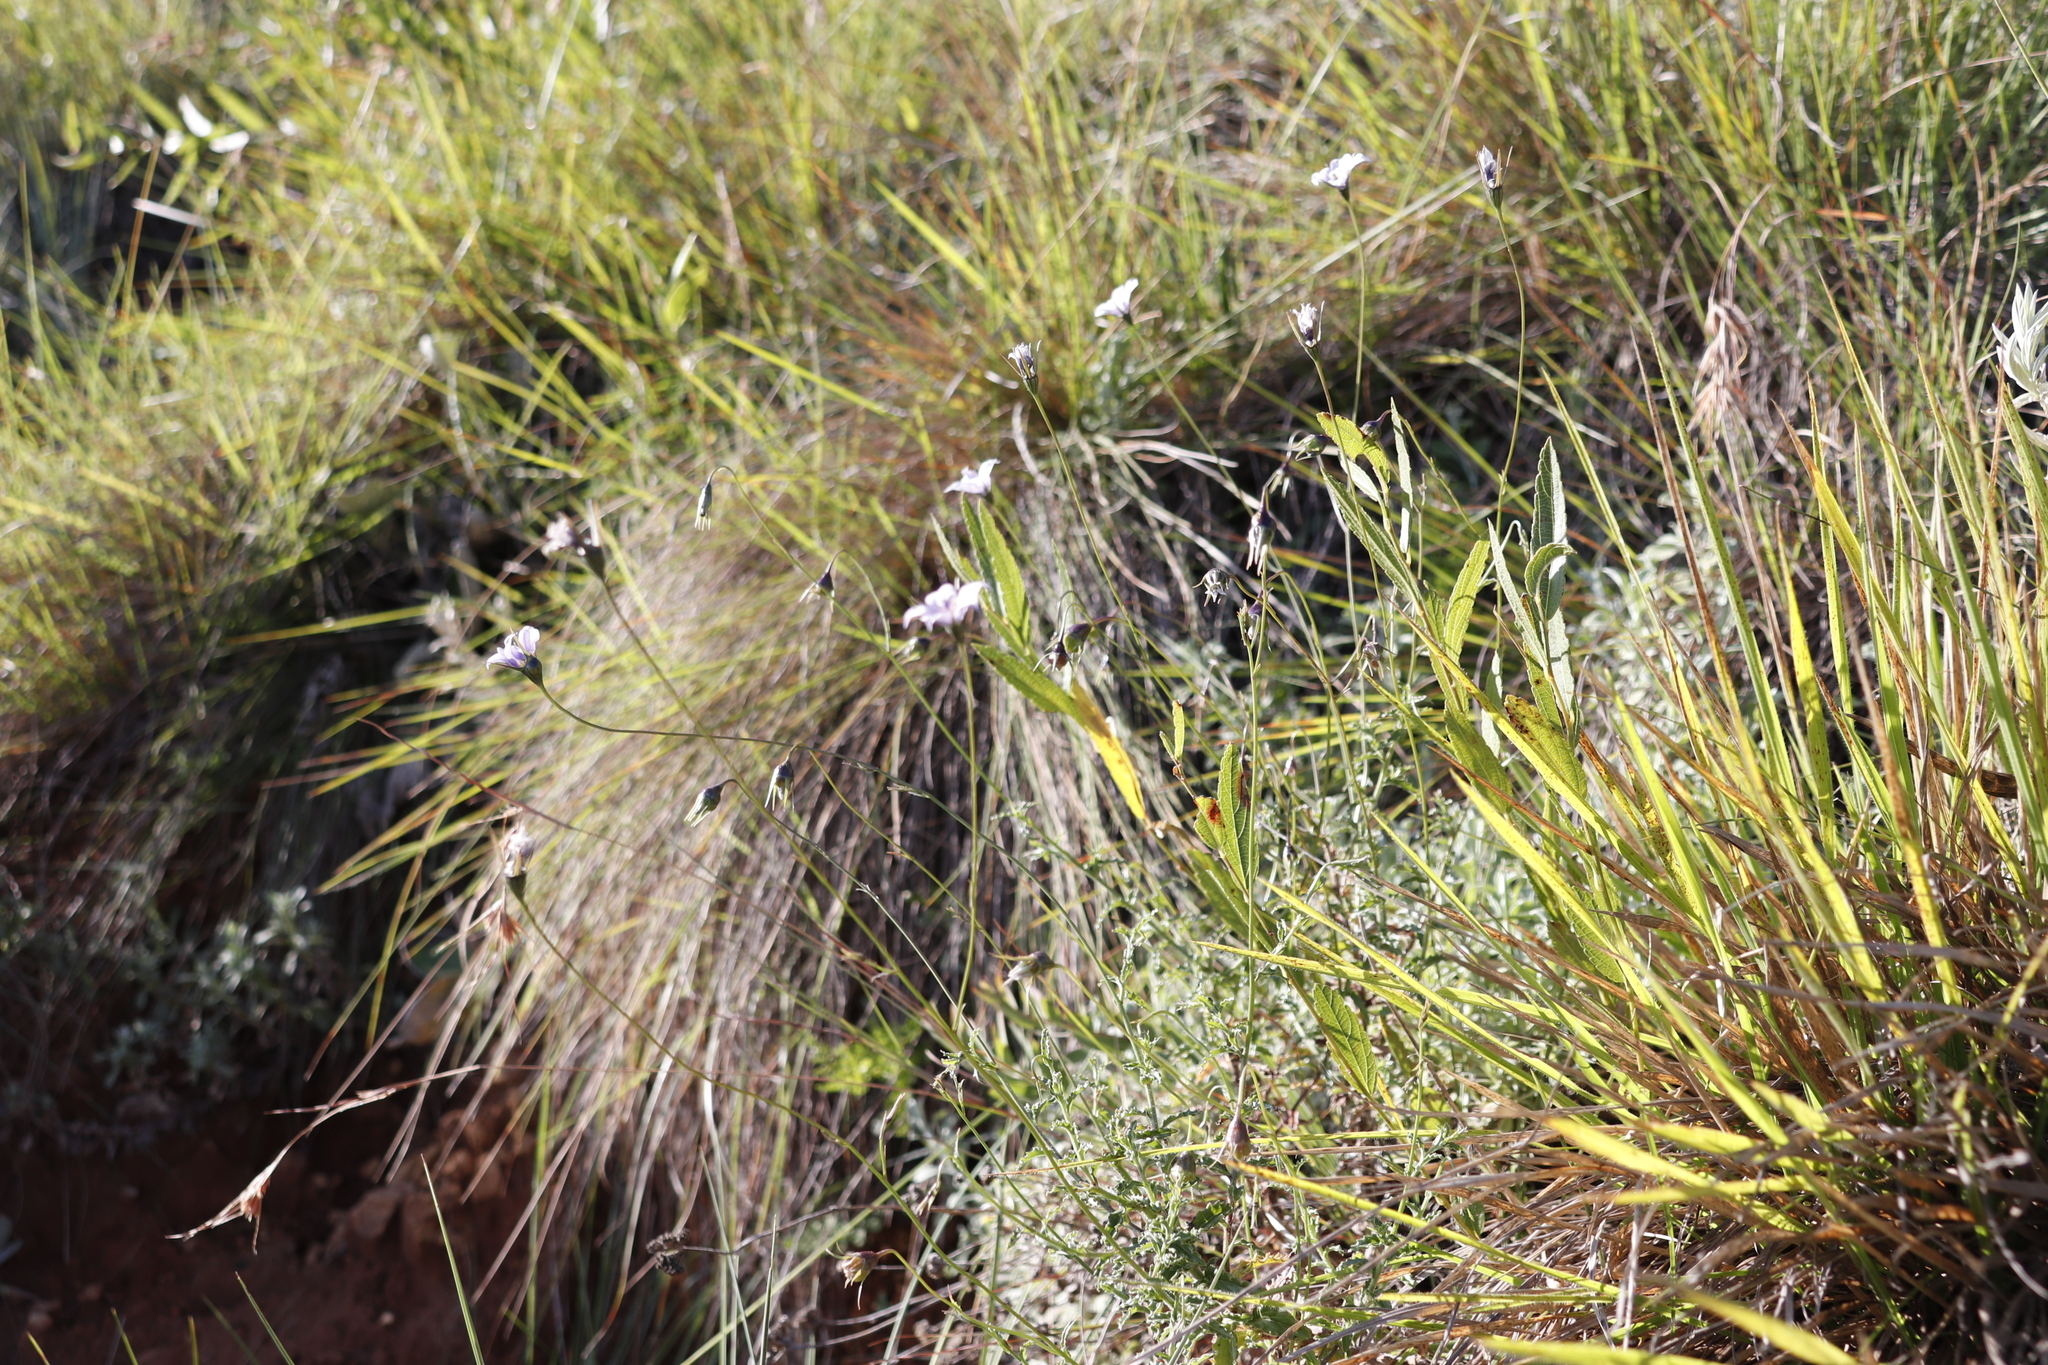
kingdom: Plantae
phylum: Tracheophyta
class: Magnoliopsida
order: Asterales
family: Campanulaceae
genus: Wahlenbergia
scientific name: Wahlenbergia cuspidata
